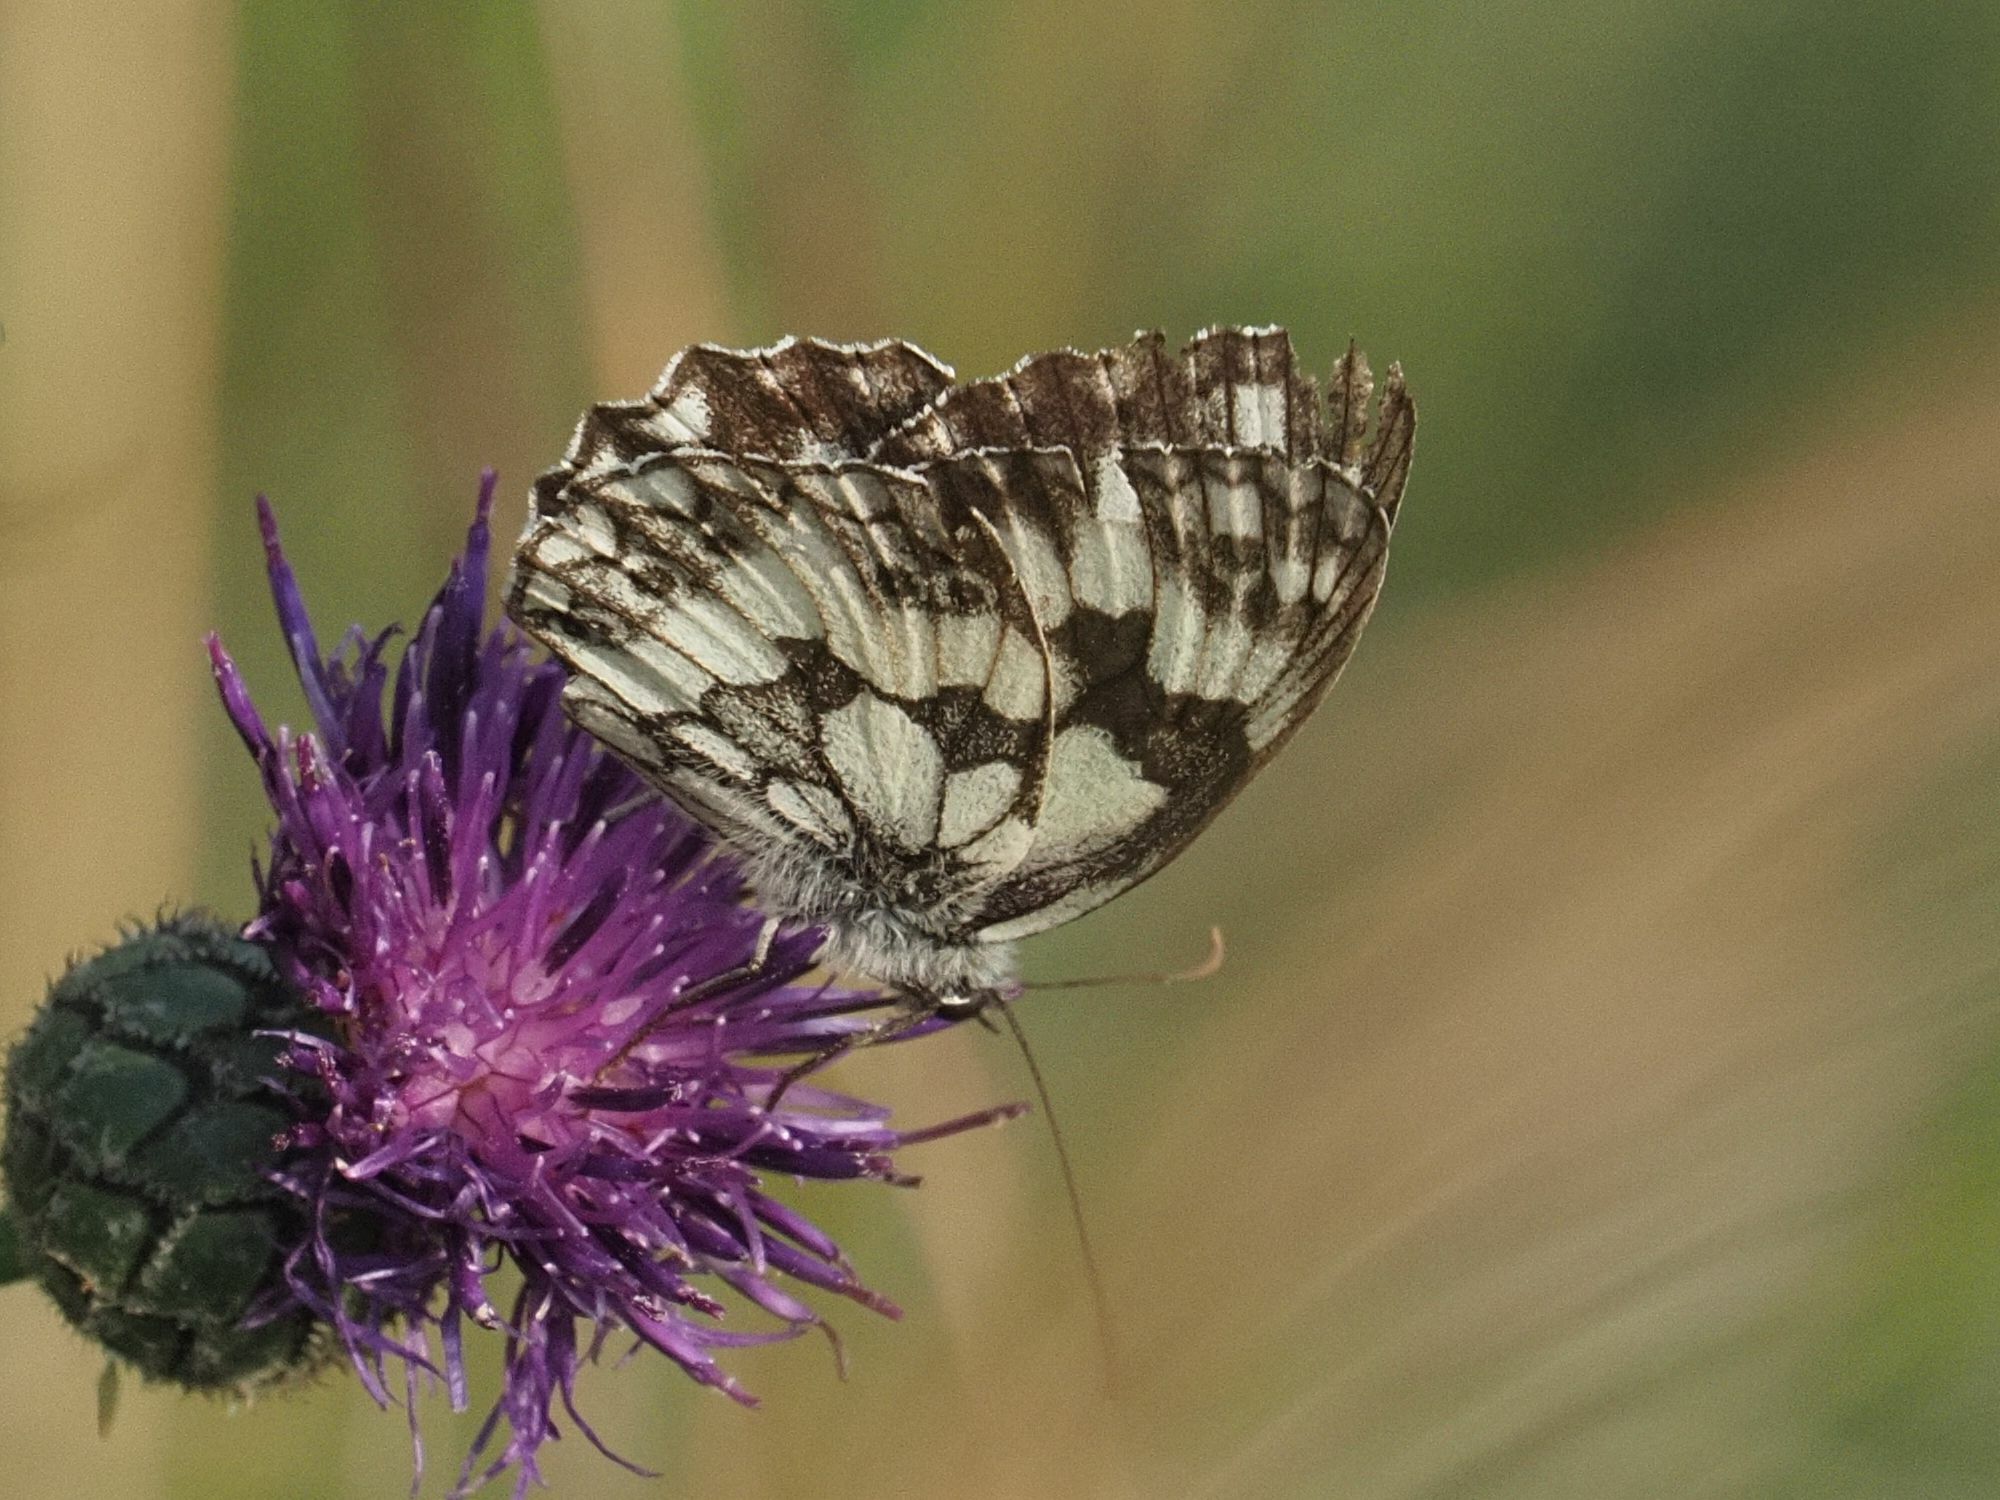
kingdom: Animalia
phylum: Arthropoda
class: Insecta
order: Lepidoptera
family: Nymphalidae
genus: Melanargia
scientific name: Melanargia galathea
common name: Marbled white
